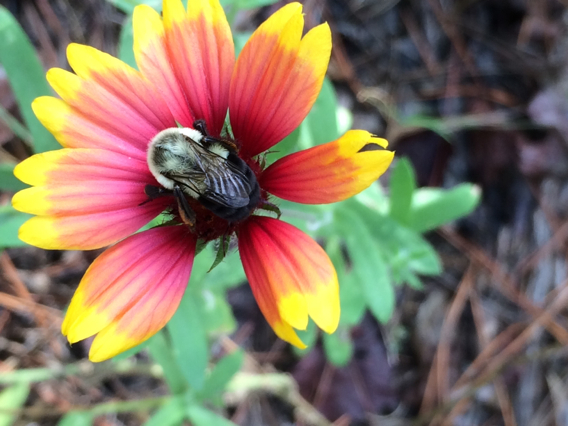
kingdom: Animalia
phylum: Arthropoda
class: Insecta
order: Hymenoptera
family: Apidae
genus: Bombus
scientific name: Bombus impatiens
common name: Common eastern bumble bee
